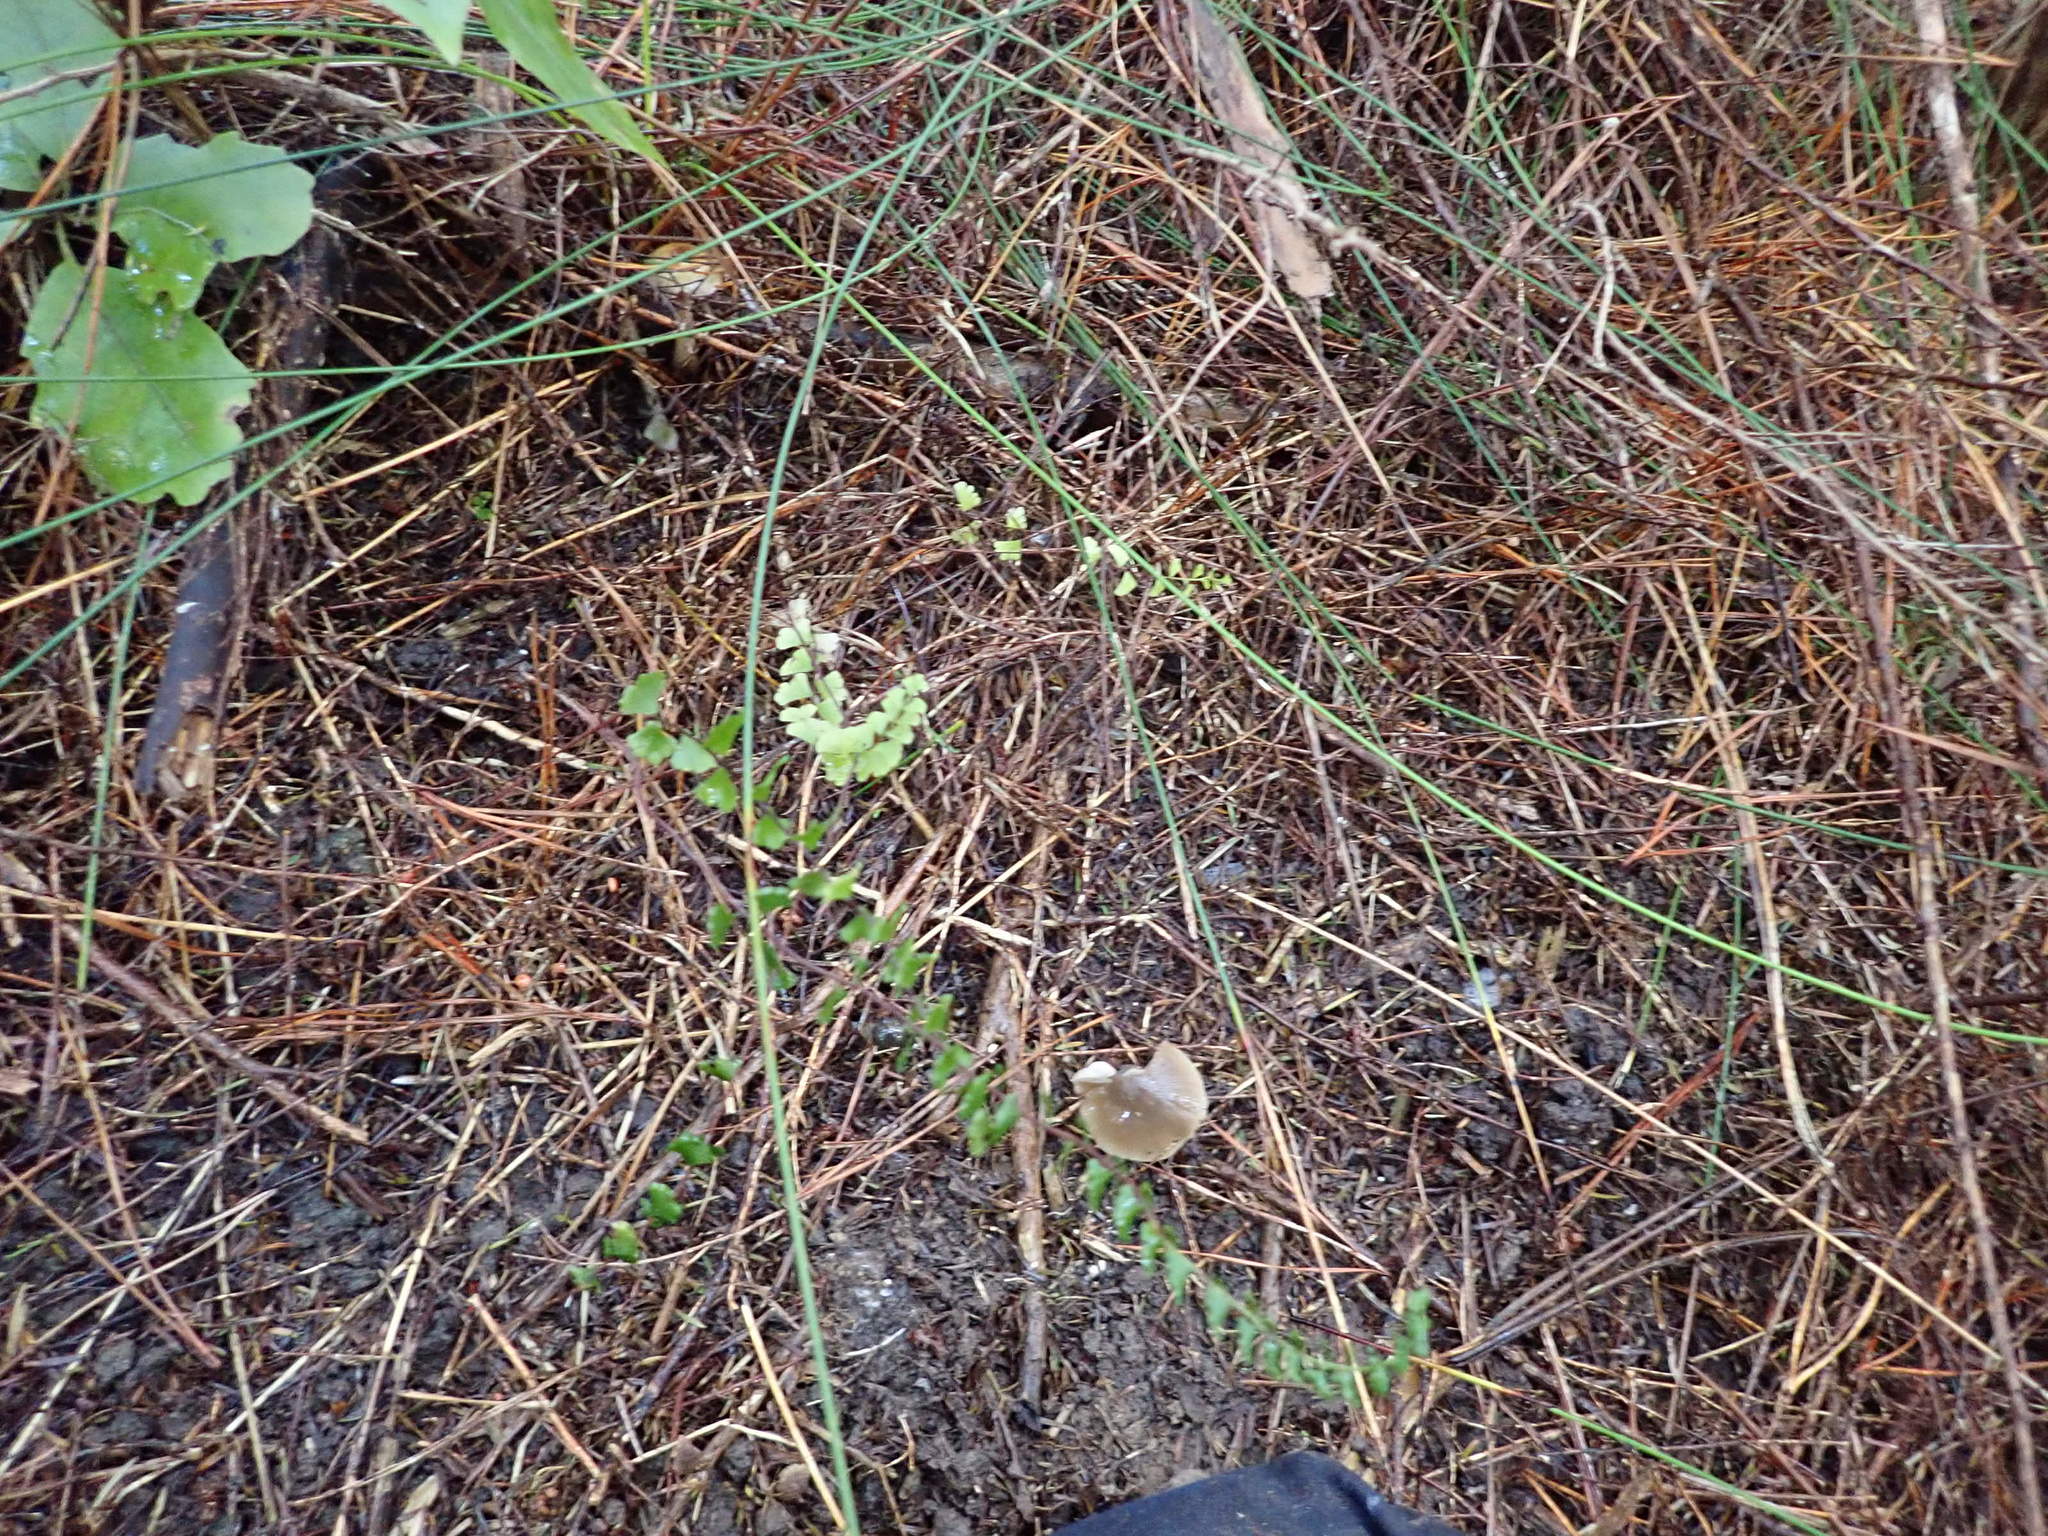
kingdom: Plantae
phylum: Tracheophyta
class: Polypodiopsida
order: Polypodiales
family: Lindsaeaceae
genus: Lindsaea
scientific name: Lindsaea linearis
